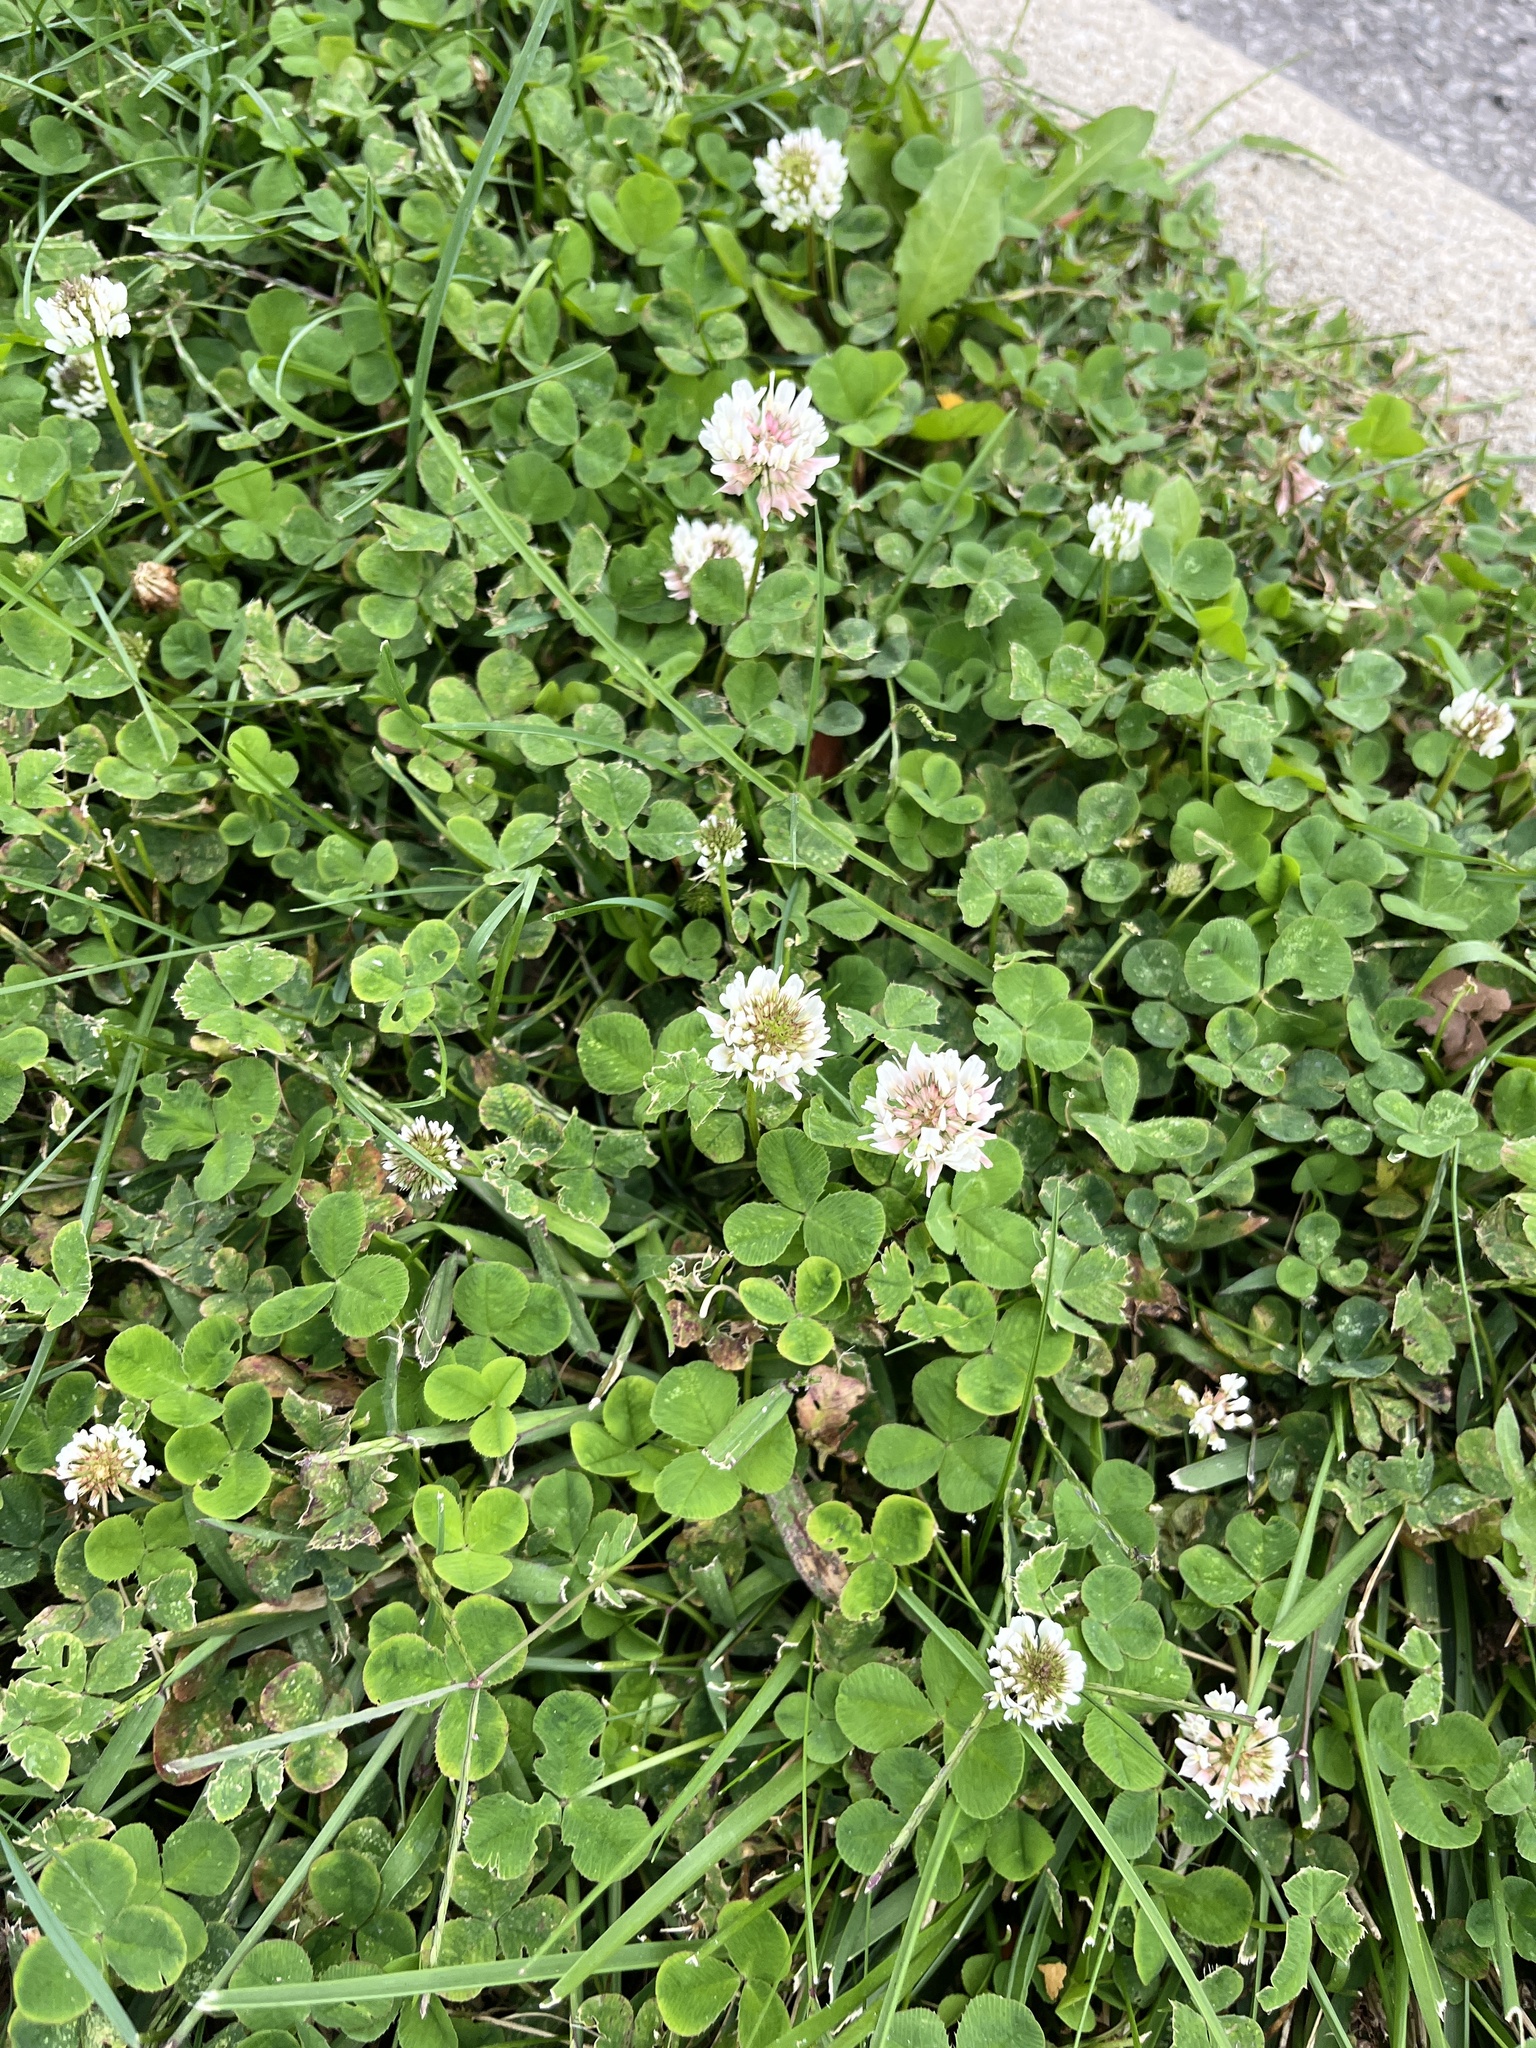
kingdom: Plantae
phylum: Tracheophyta
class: Magnoliopsida
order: Fabales
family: Fabaceae
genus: Trifolium
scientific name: Trifolium repens
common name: White clover
